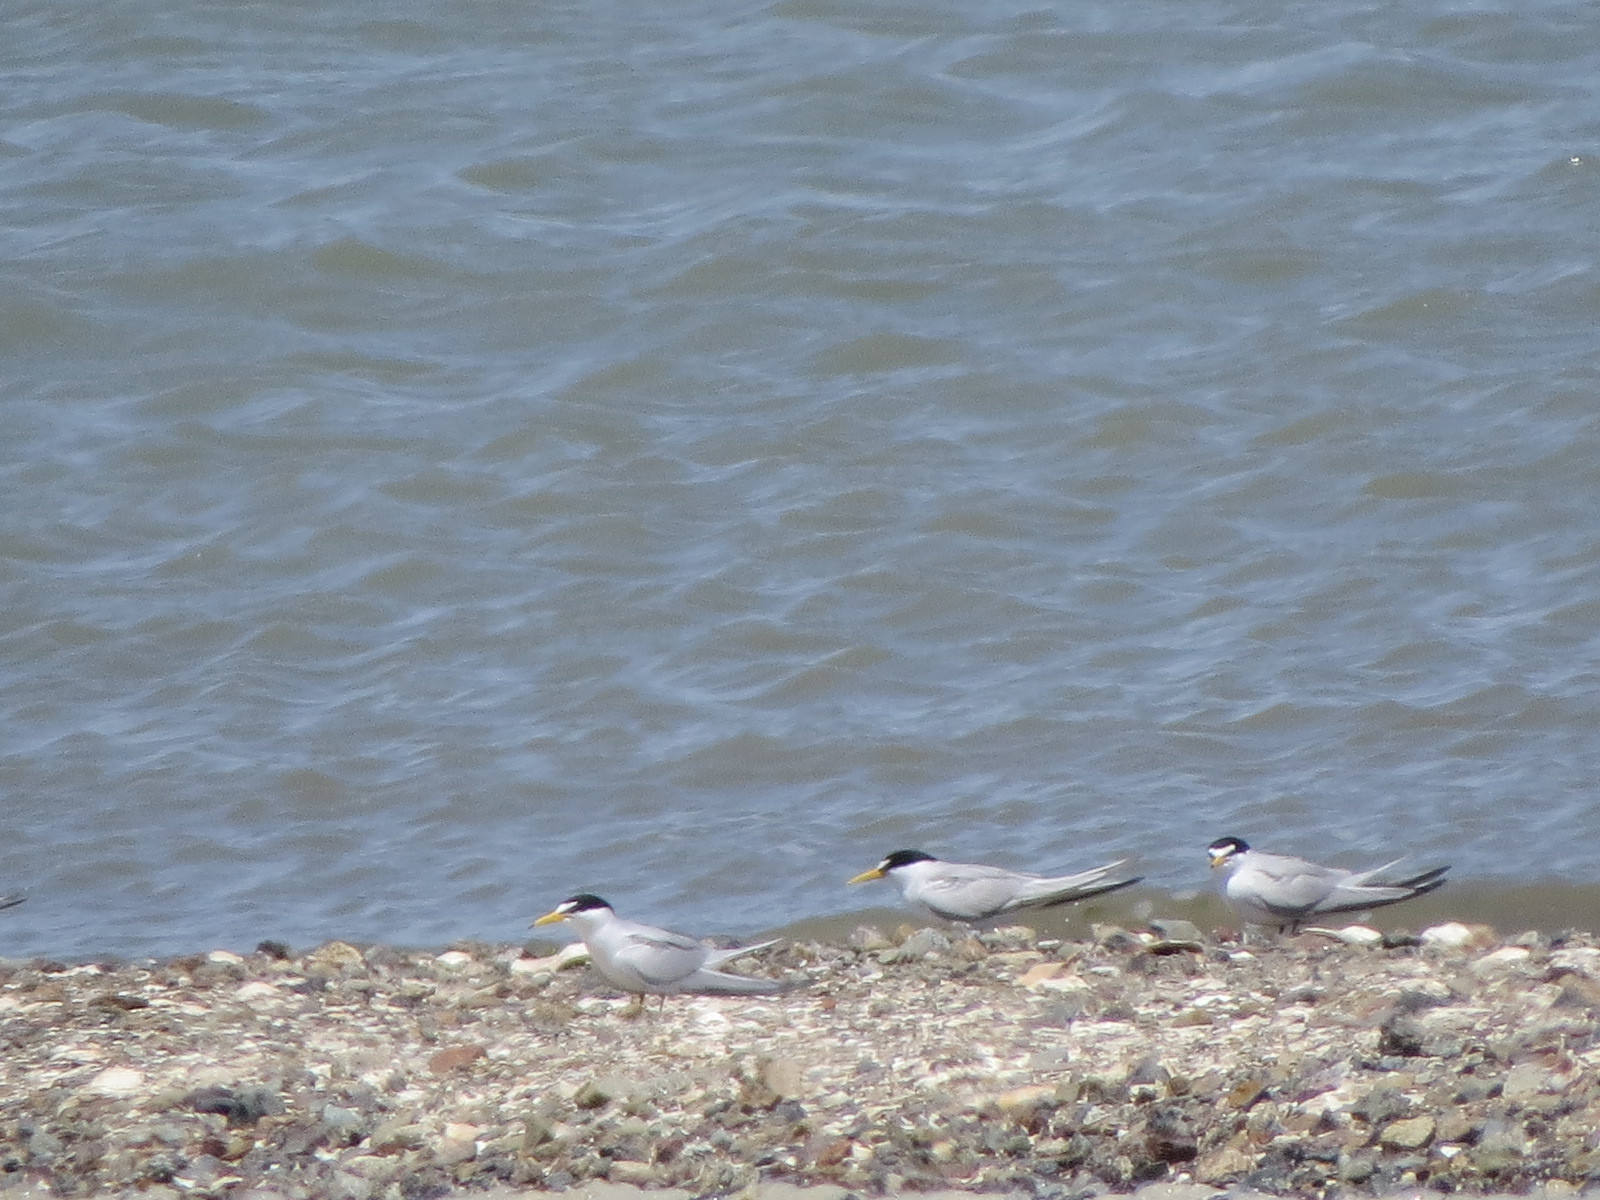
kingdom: Animalia
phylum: Chordata
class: Aves
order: Charadriiformes
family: Laridae
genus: Sternula
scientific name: Sternula antillarum
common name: Least tern
